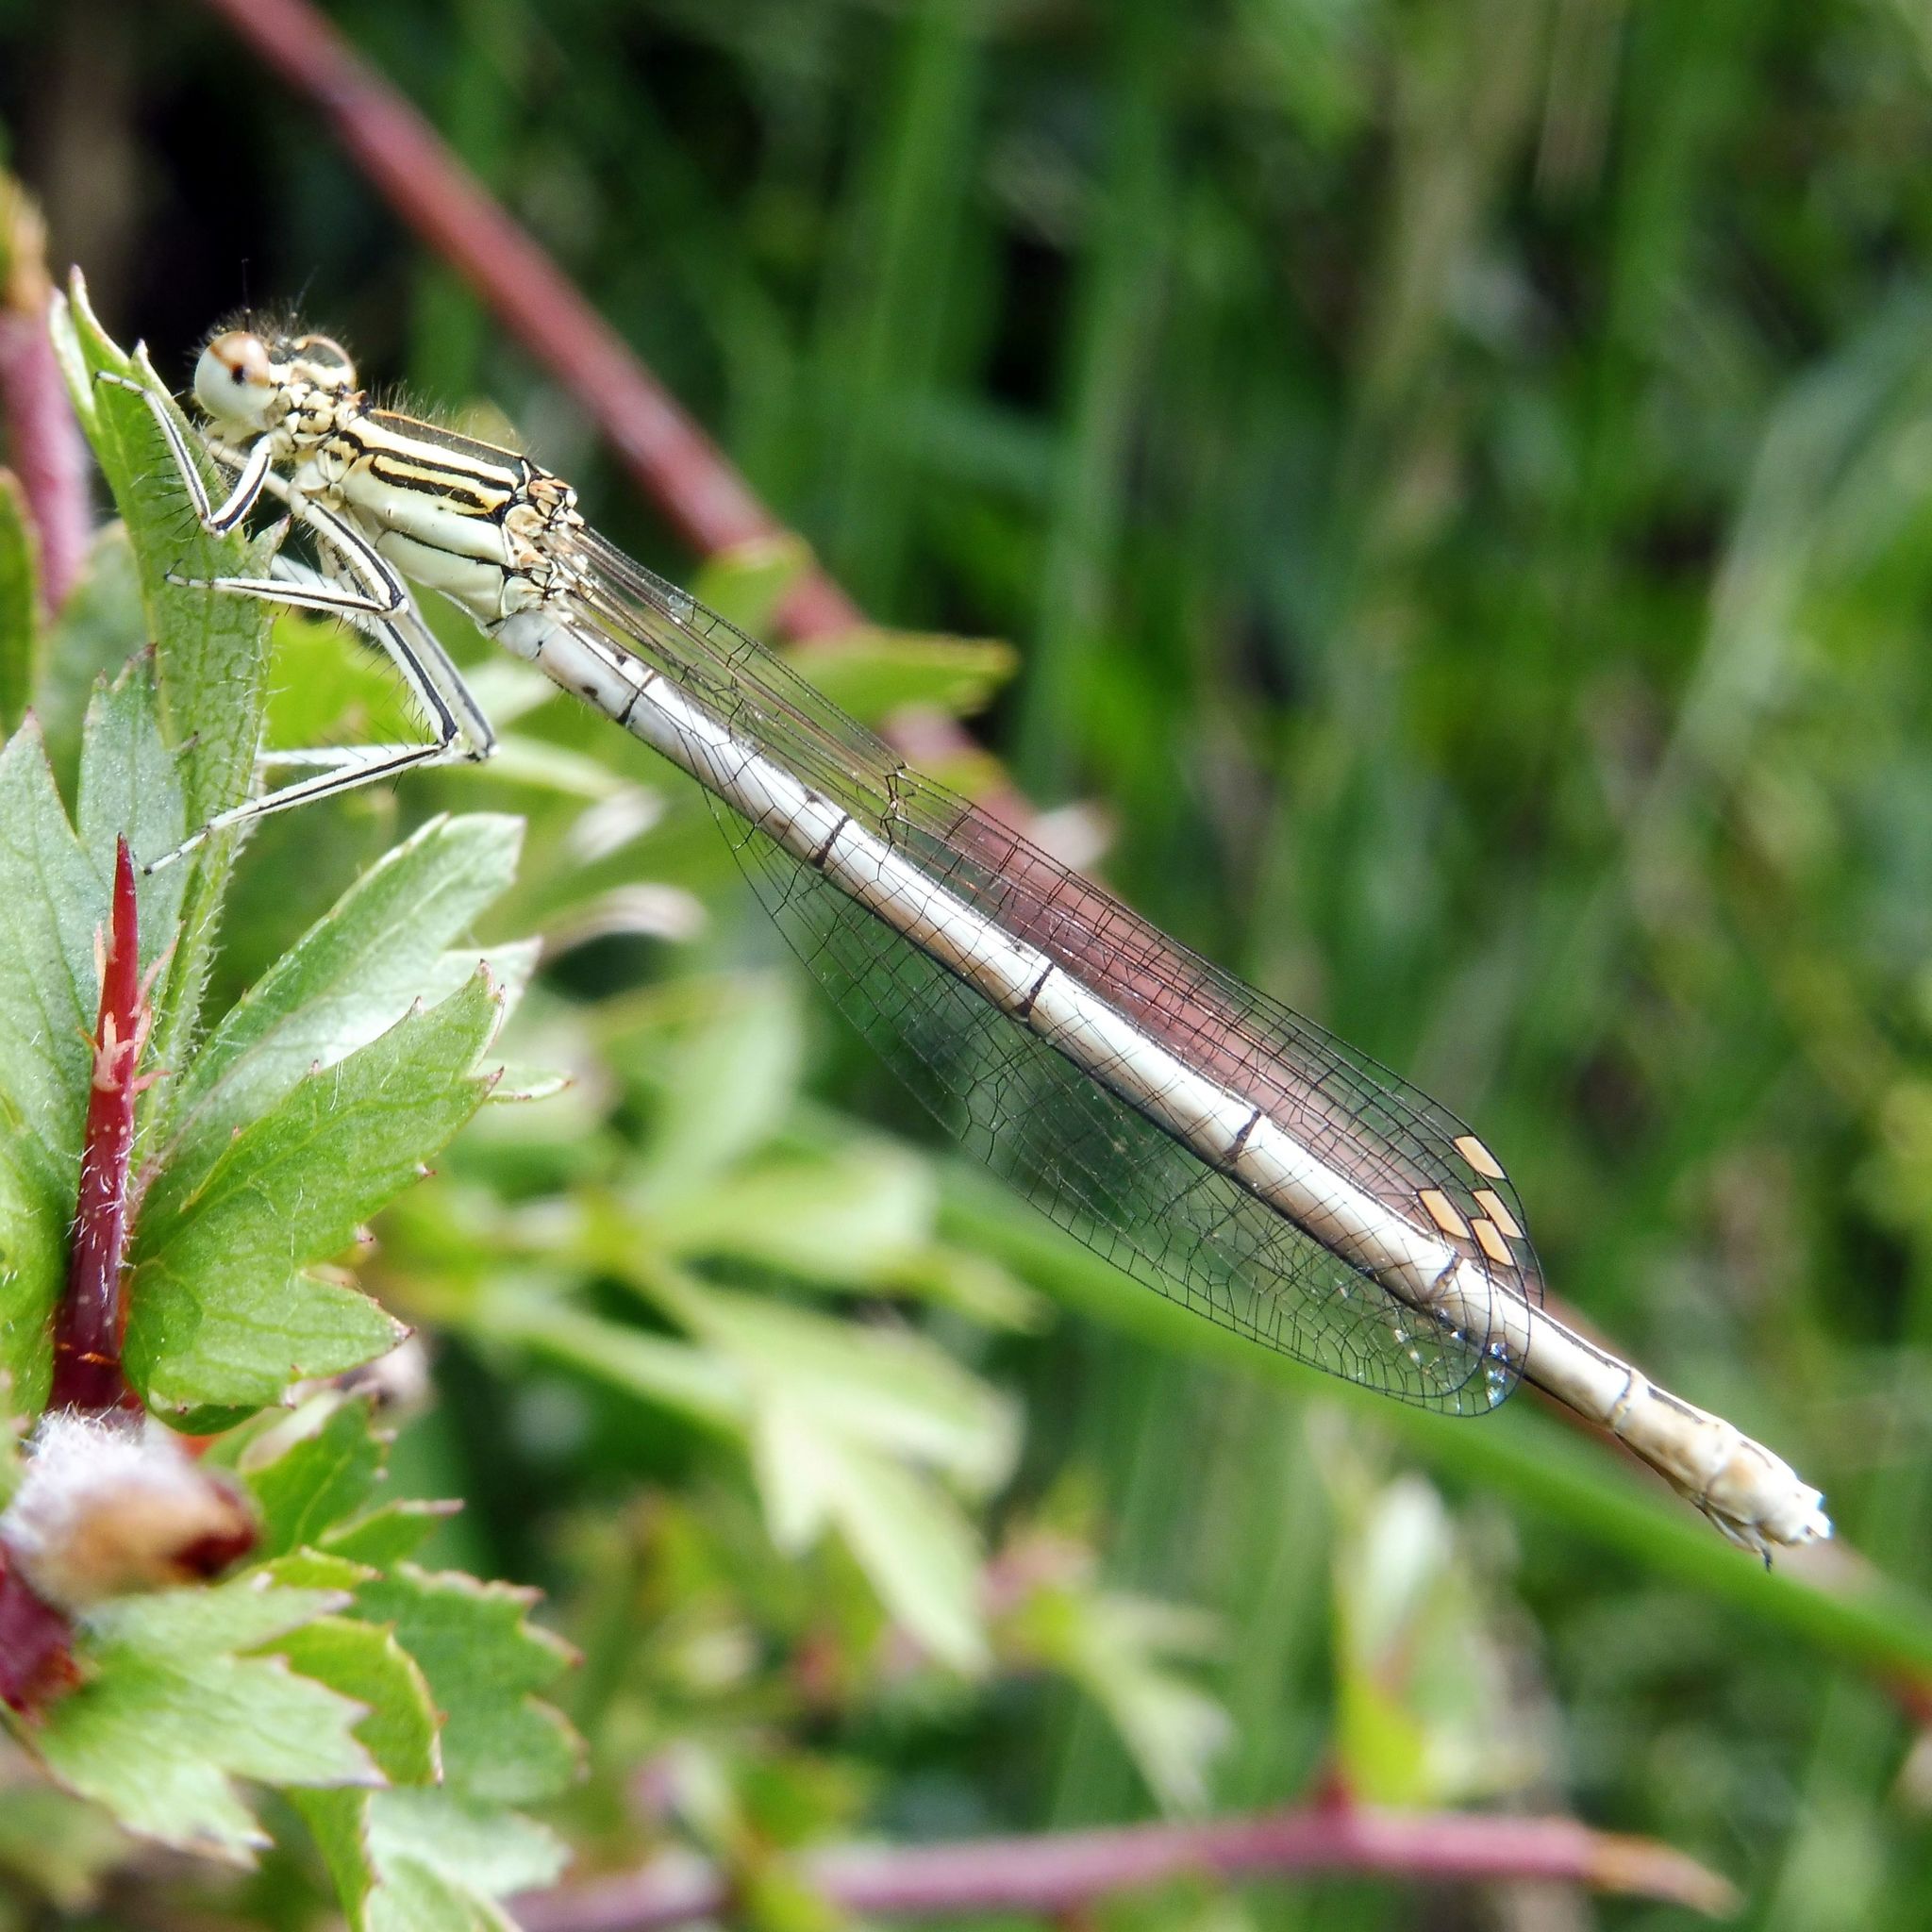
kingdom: Animalia
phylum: Arthropoda
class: Insecta
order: Odonata
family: Platycnemididae
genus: Platycnemis
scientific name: Platycnemis pennipes
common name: White-legged damselfly
